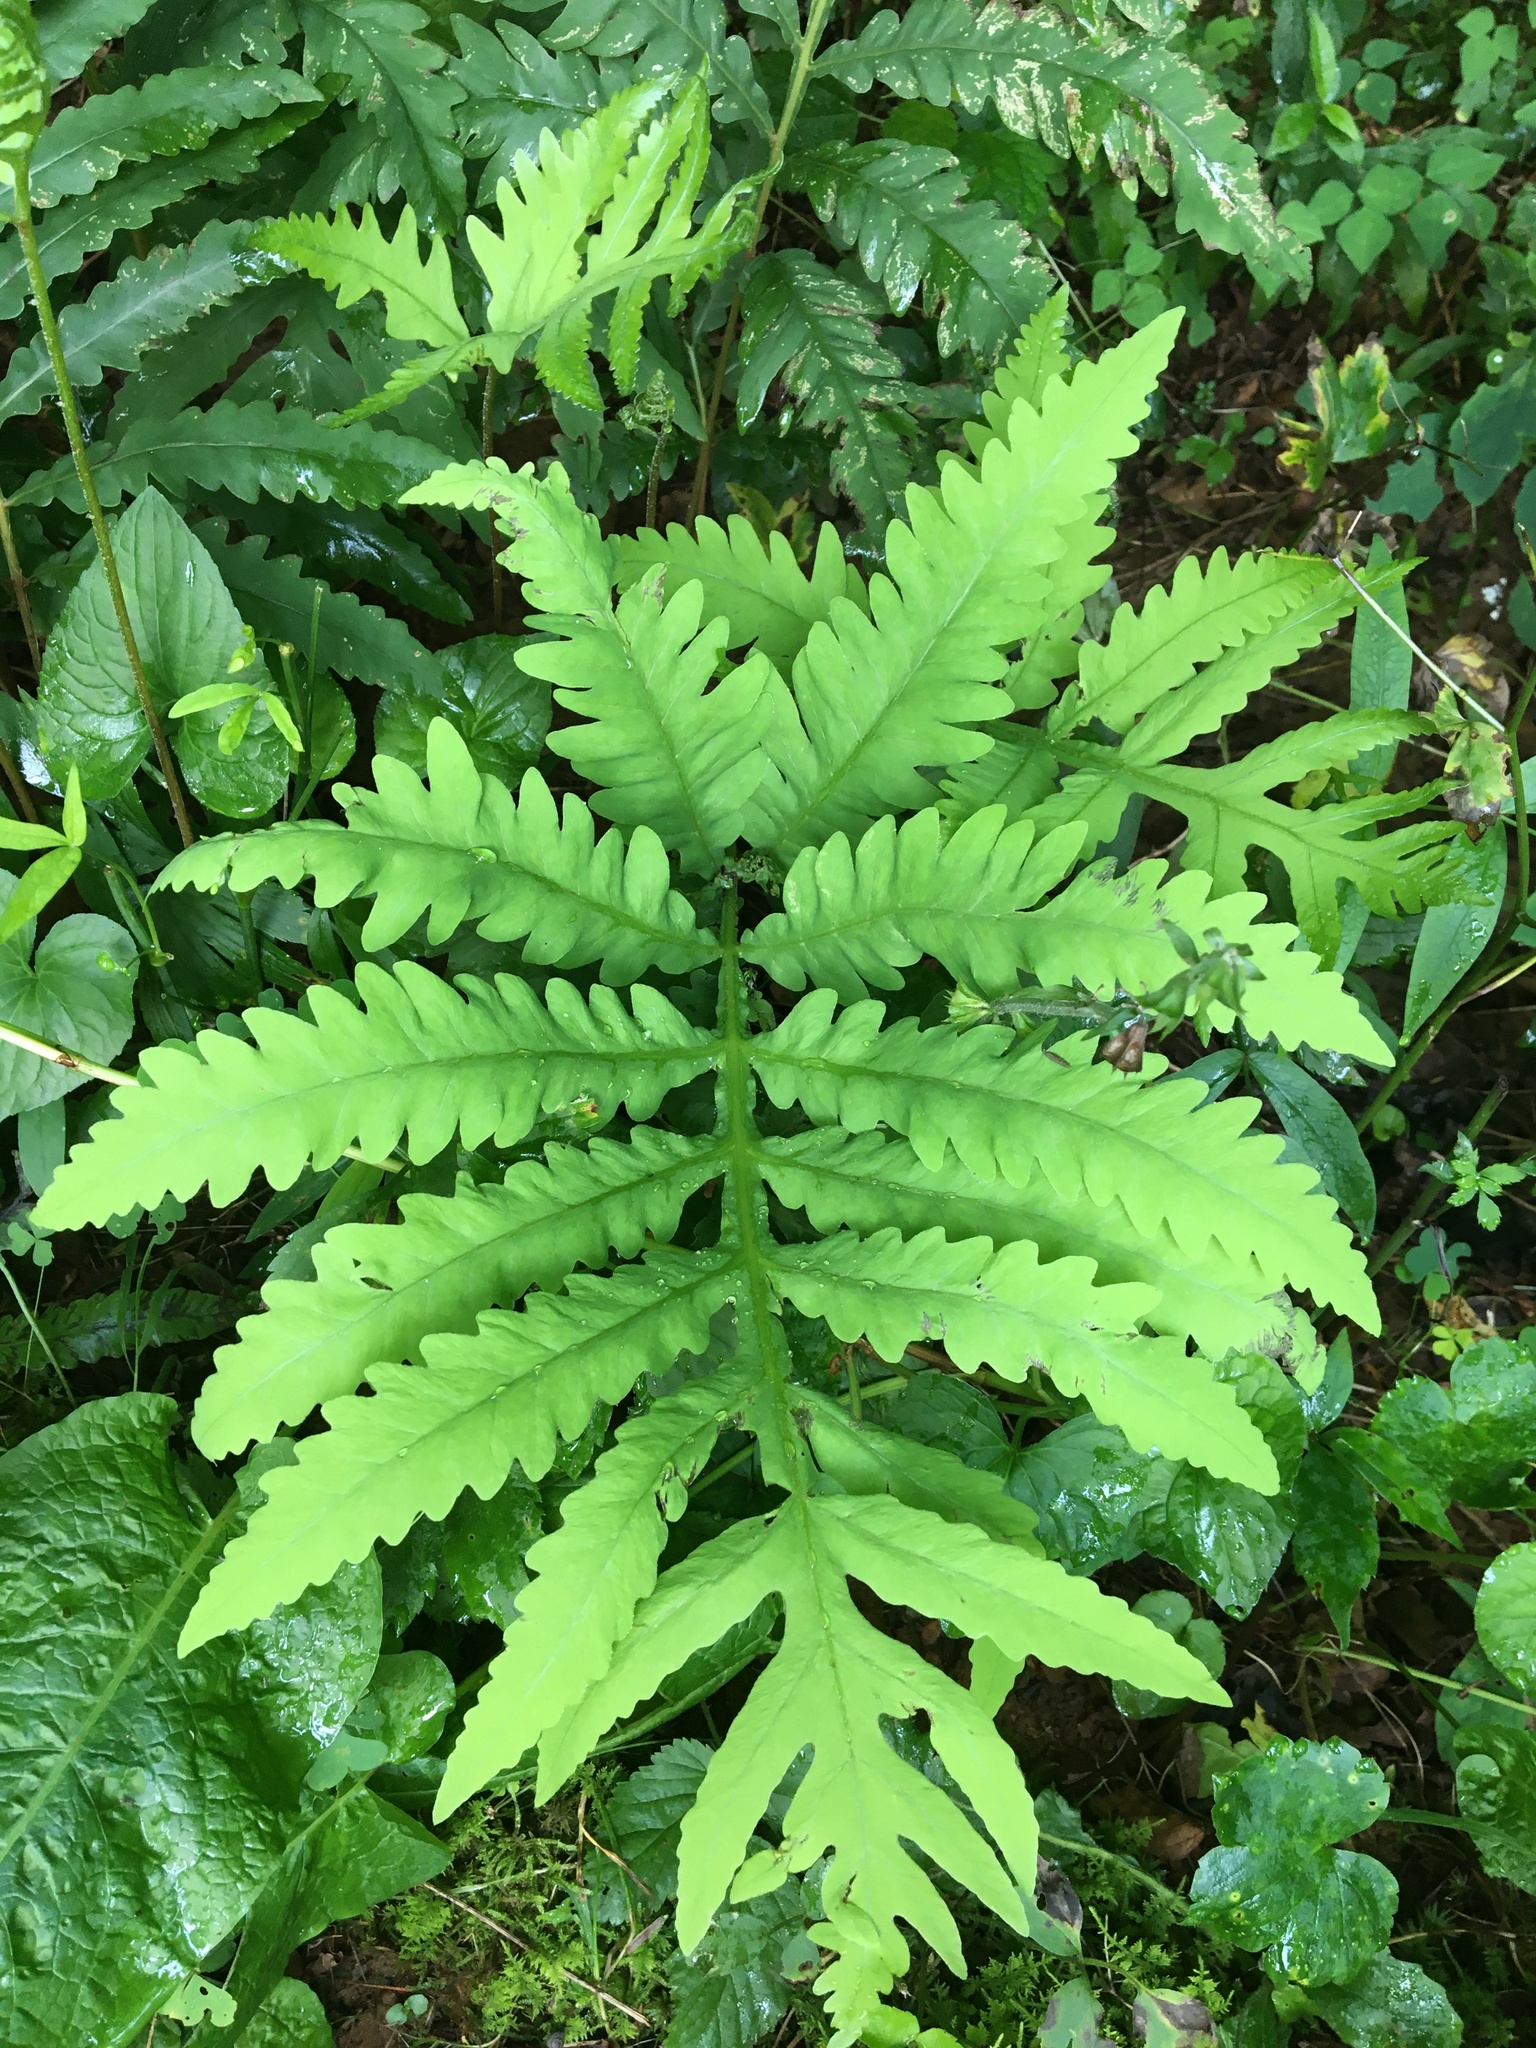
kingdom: Plantae
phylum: Tracheophyta
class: Polypodiopsida
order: Polypodiales
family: Onocleaceae
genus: Onoclea
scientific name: Onoclea sensibilis
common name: Sensitive fern
